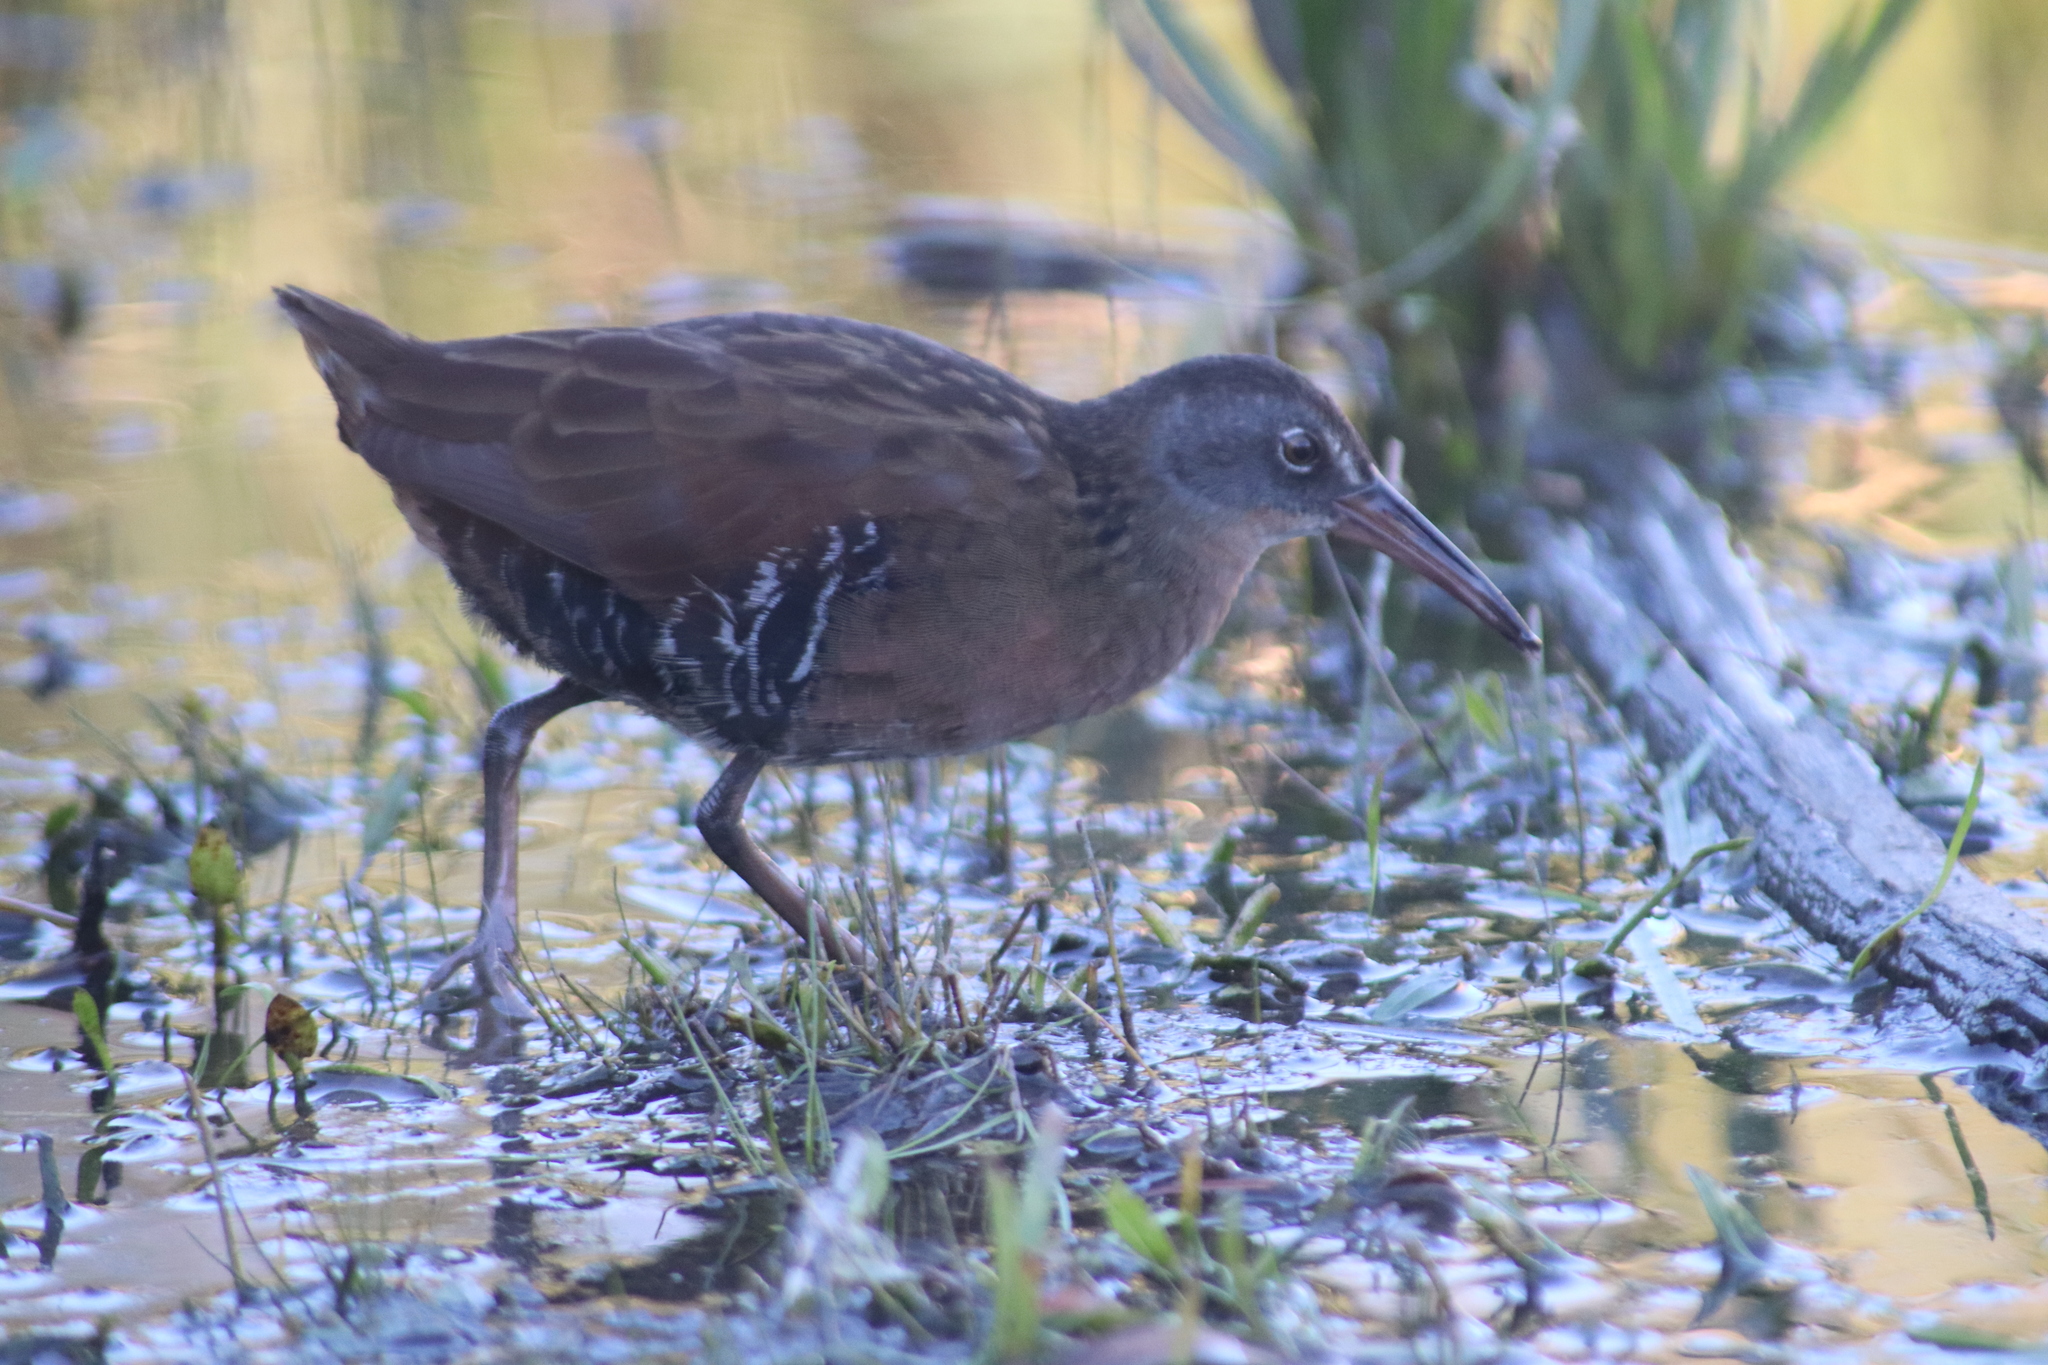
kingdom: Animalia
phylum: Chordata
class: Aves
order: Gruiformes
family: Rallidae
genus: Rallus
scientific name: Rallus limicola
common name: Virginia rail
